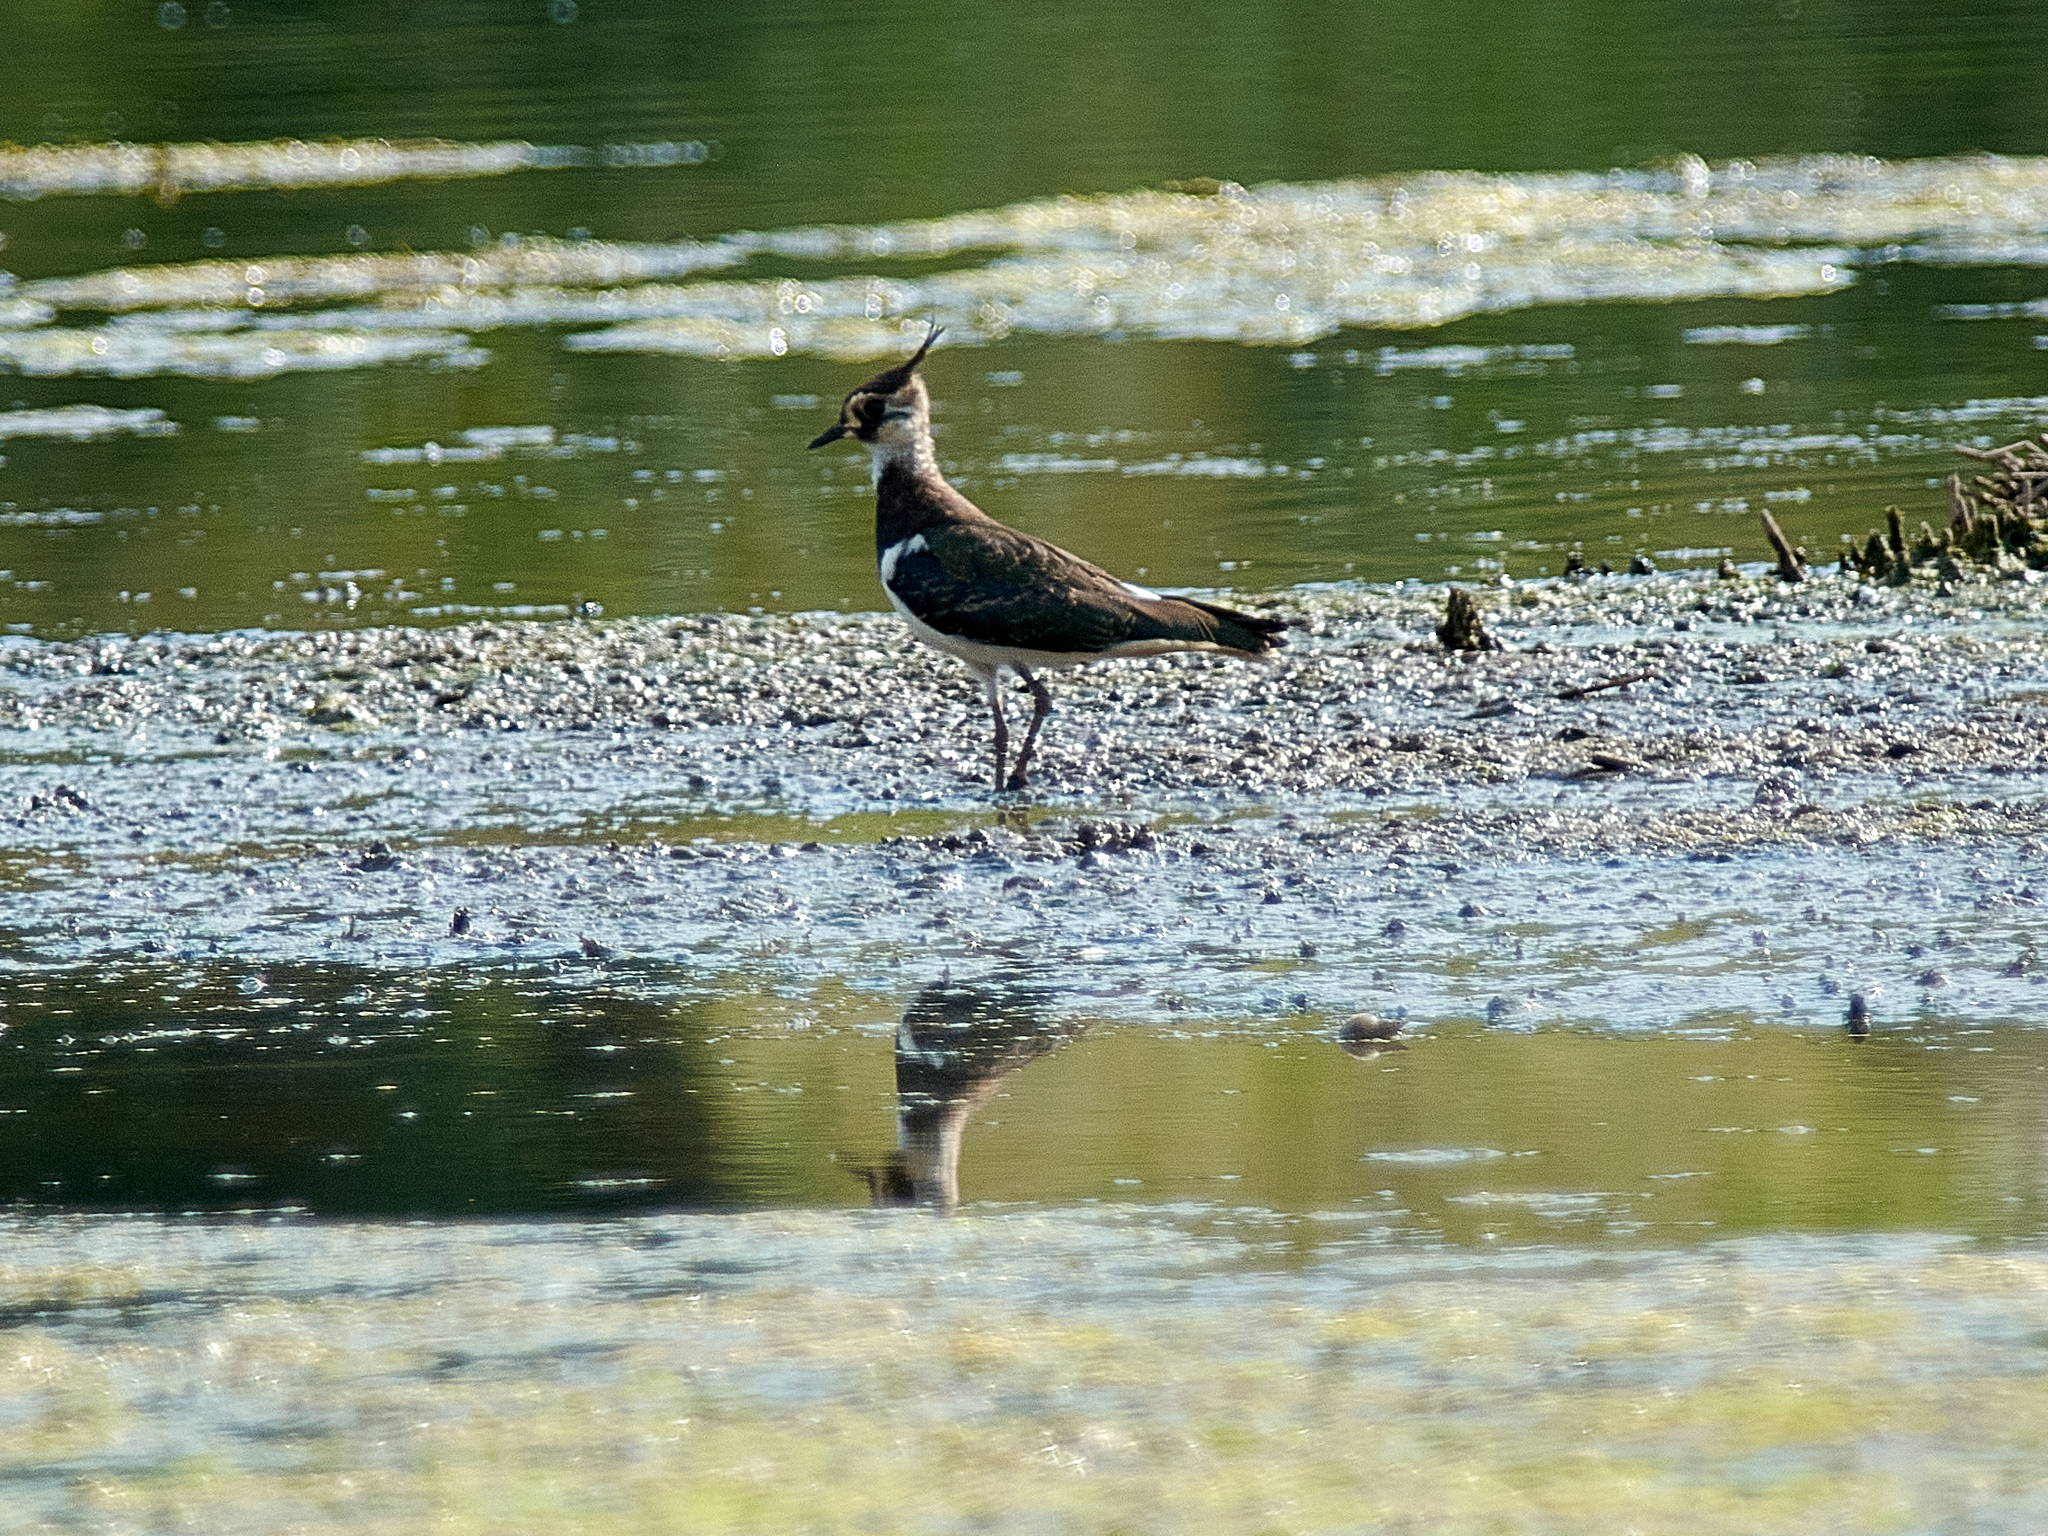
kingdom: Animalia
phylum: Chordata
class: Aves
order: Charadriiformes
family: Charadriidae
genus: Vanellus
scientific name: Vanellus vanellus
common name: Northern lapwing
